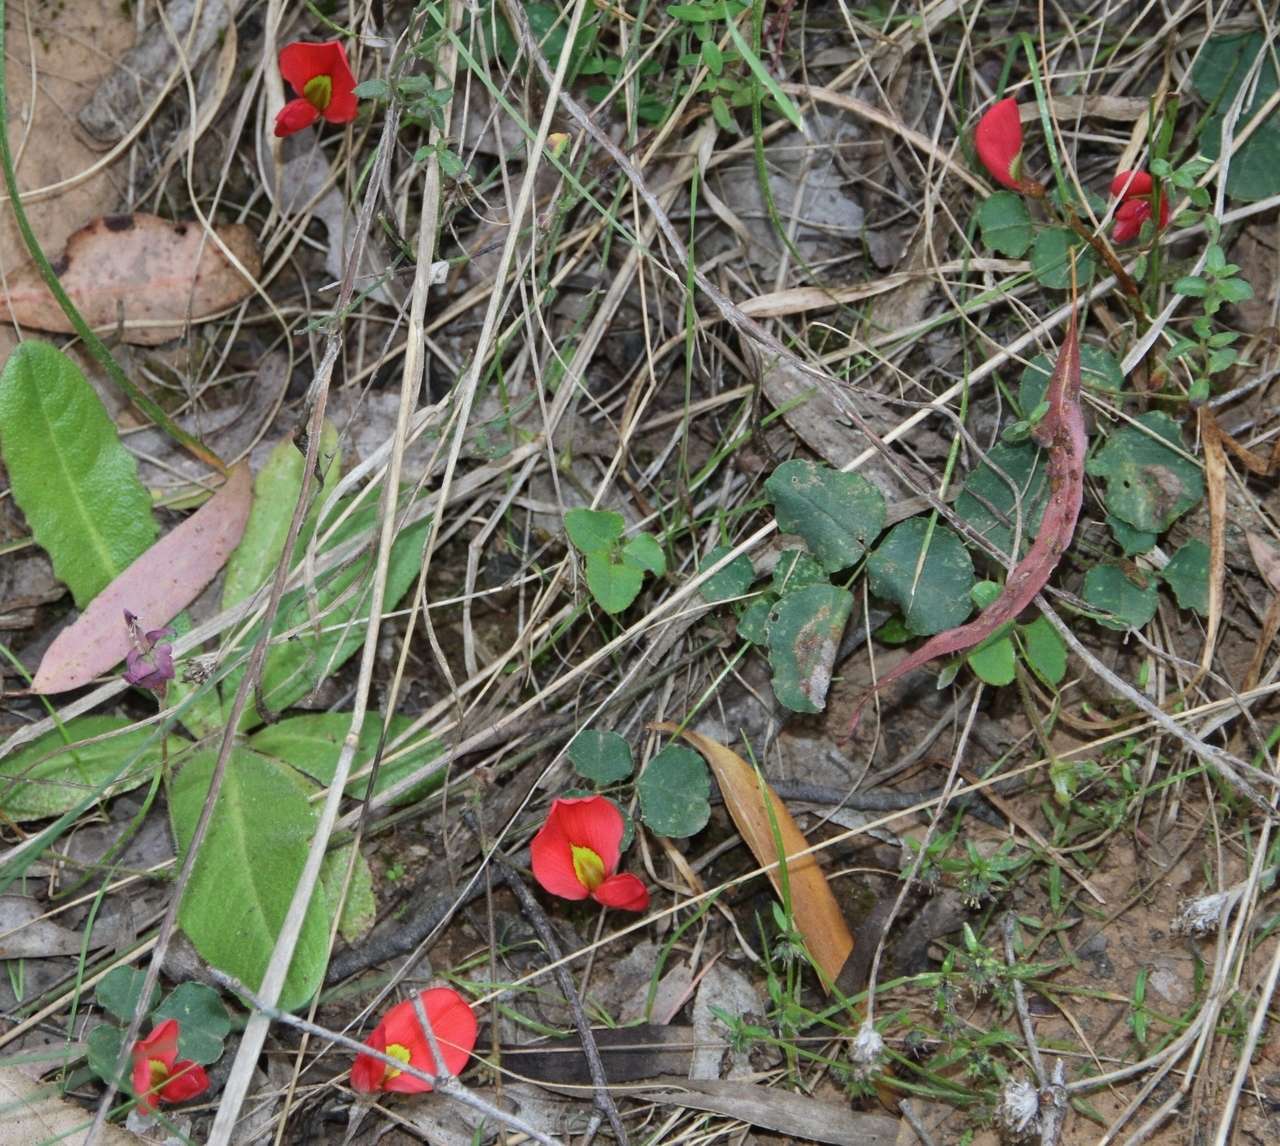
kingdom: Plantae
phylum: Tracheophyta
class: Magnoliopsida
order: Fabales
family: Fabaceae
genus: Kennedia
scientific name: Kennedia prostrata
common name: Running-postman
